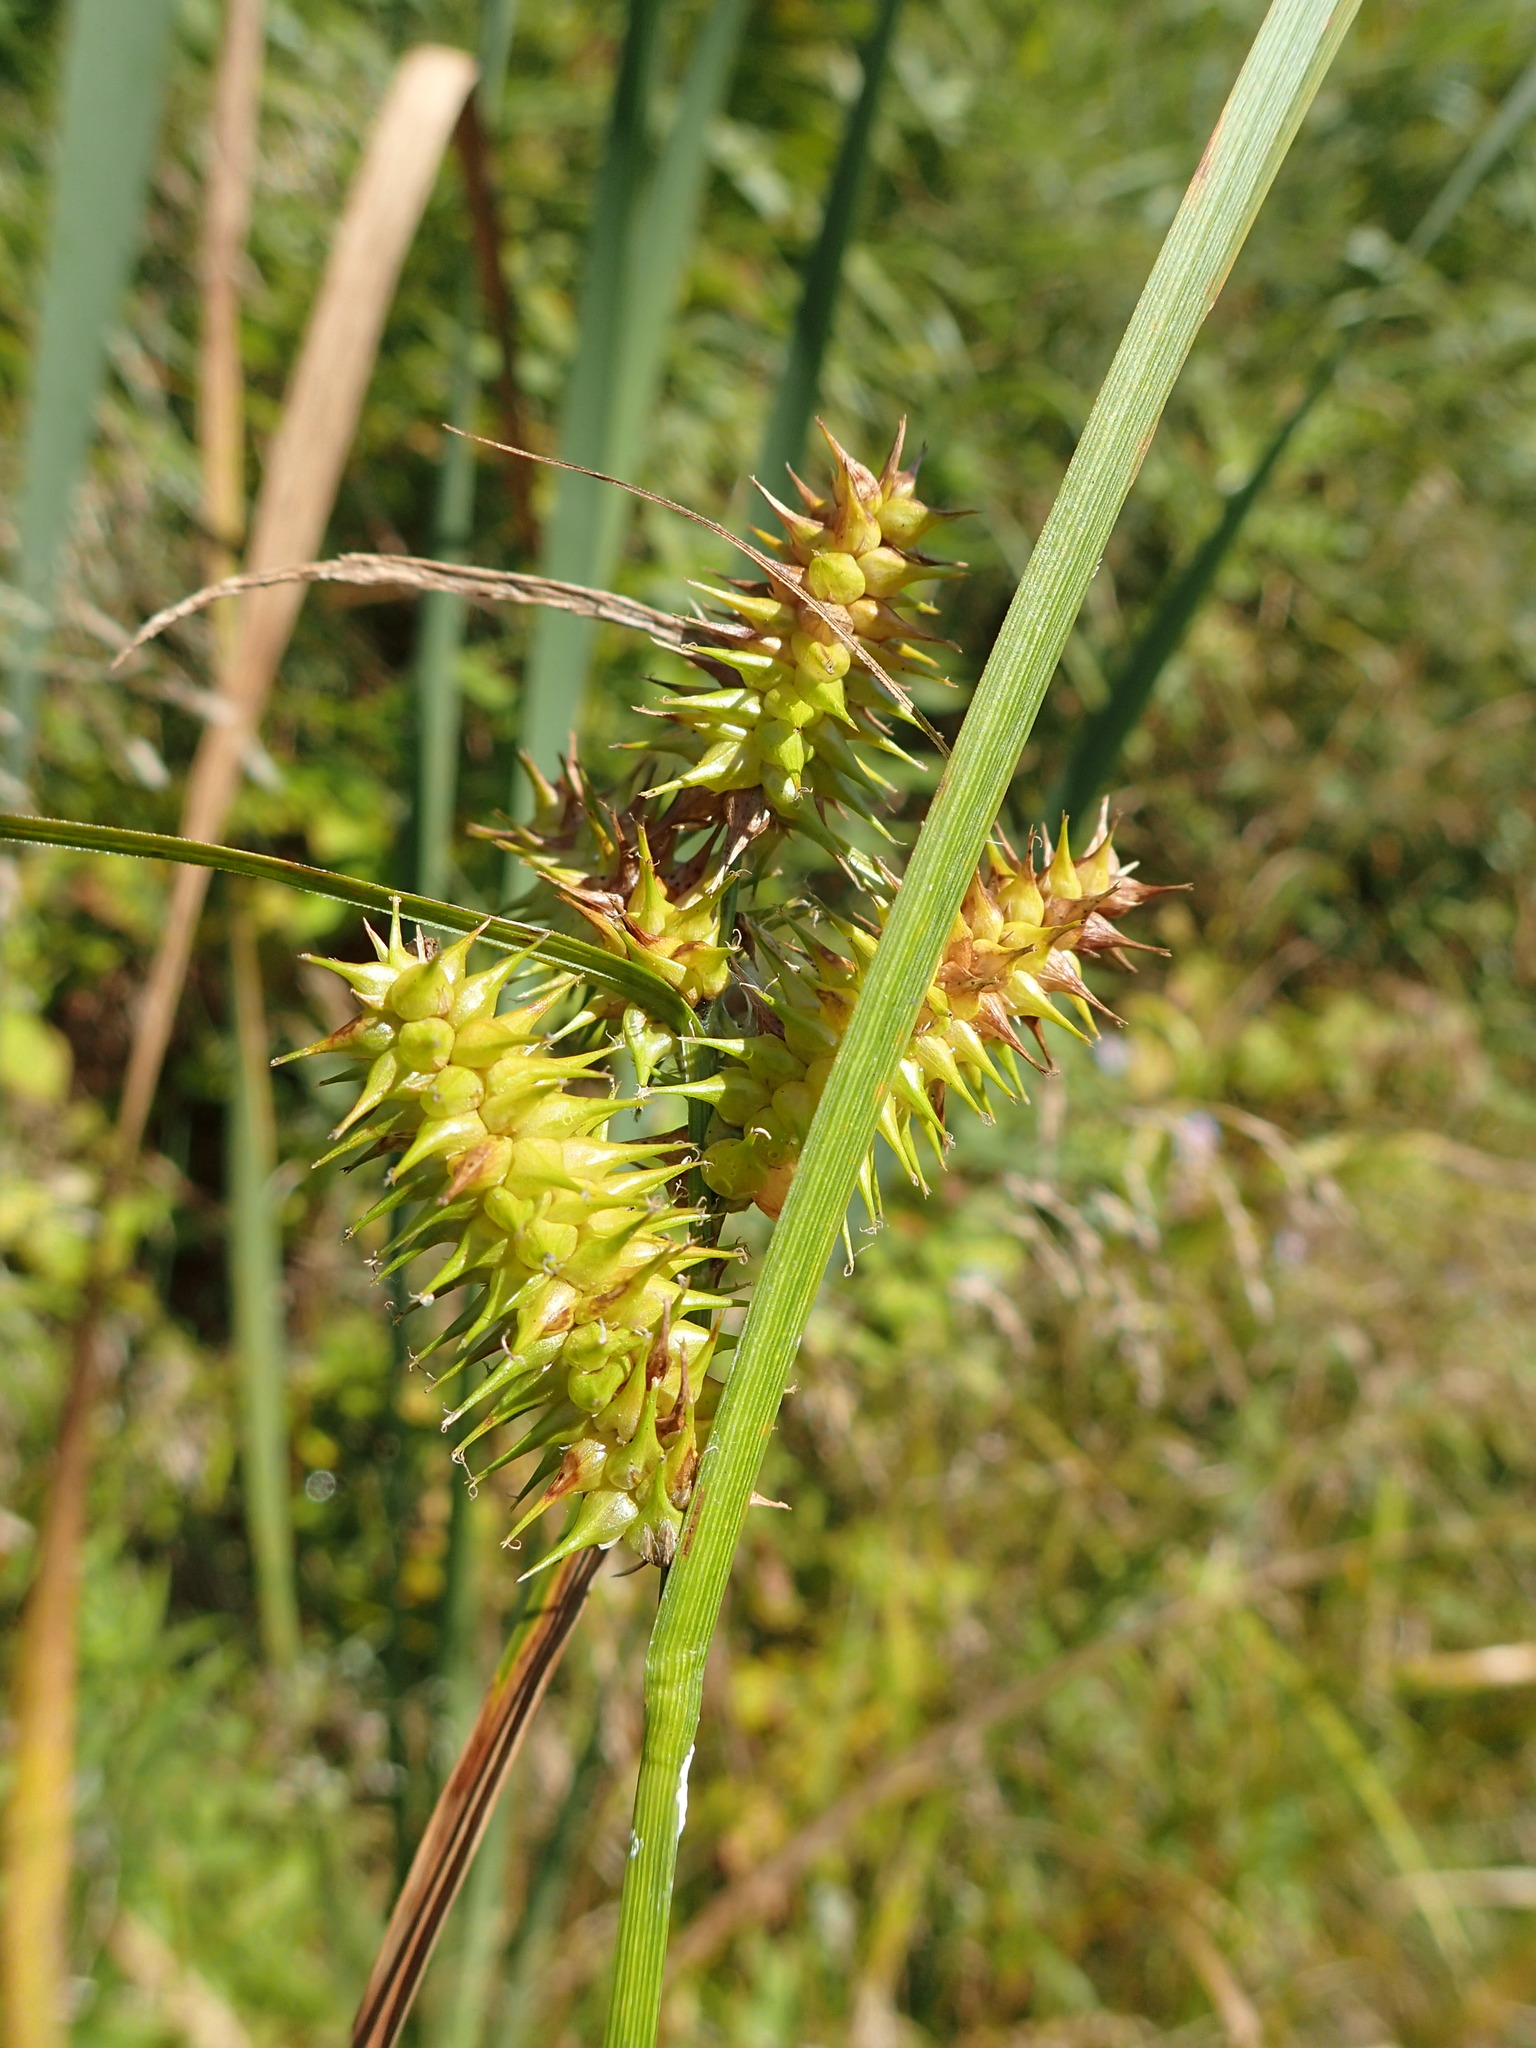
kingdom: Plantae
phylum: Tracheophyta
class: Liliopsida
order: Poales
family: Cyperaceae
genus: Carex
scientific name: Carex retrorsa
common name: Knot-sheath sedge
